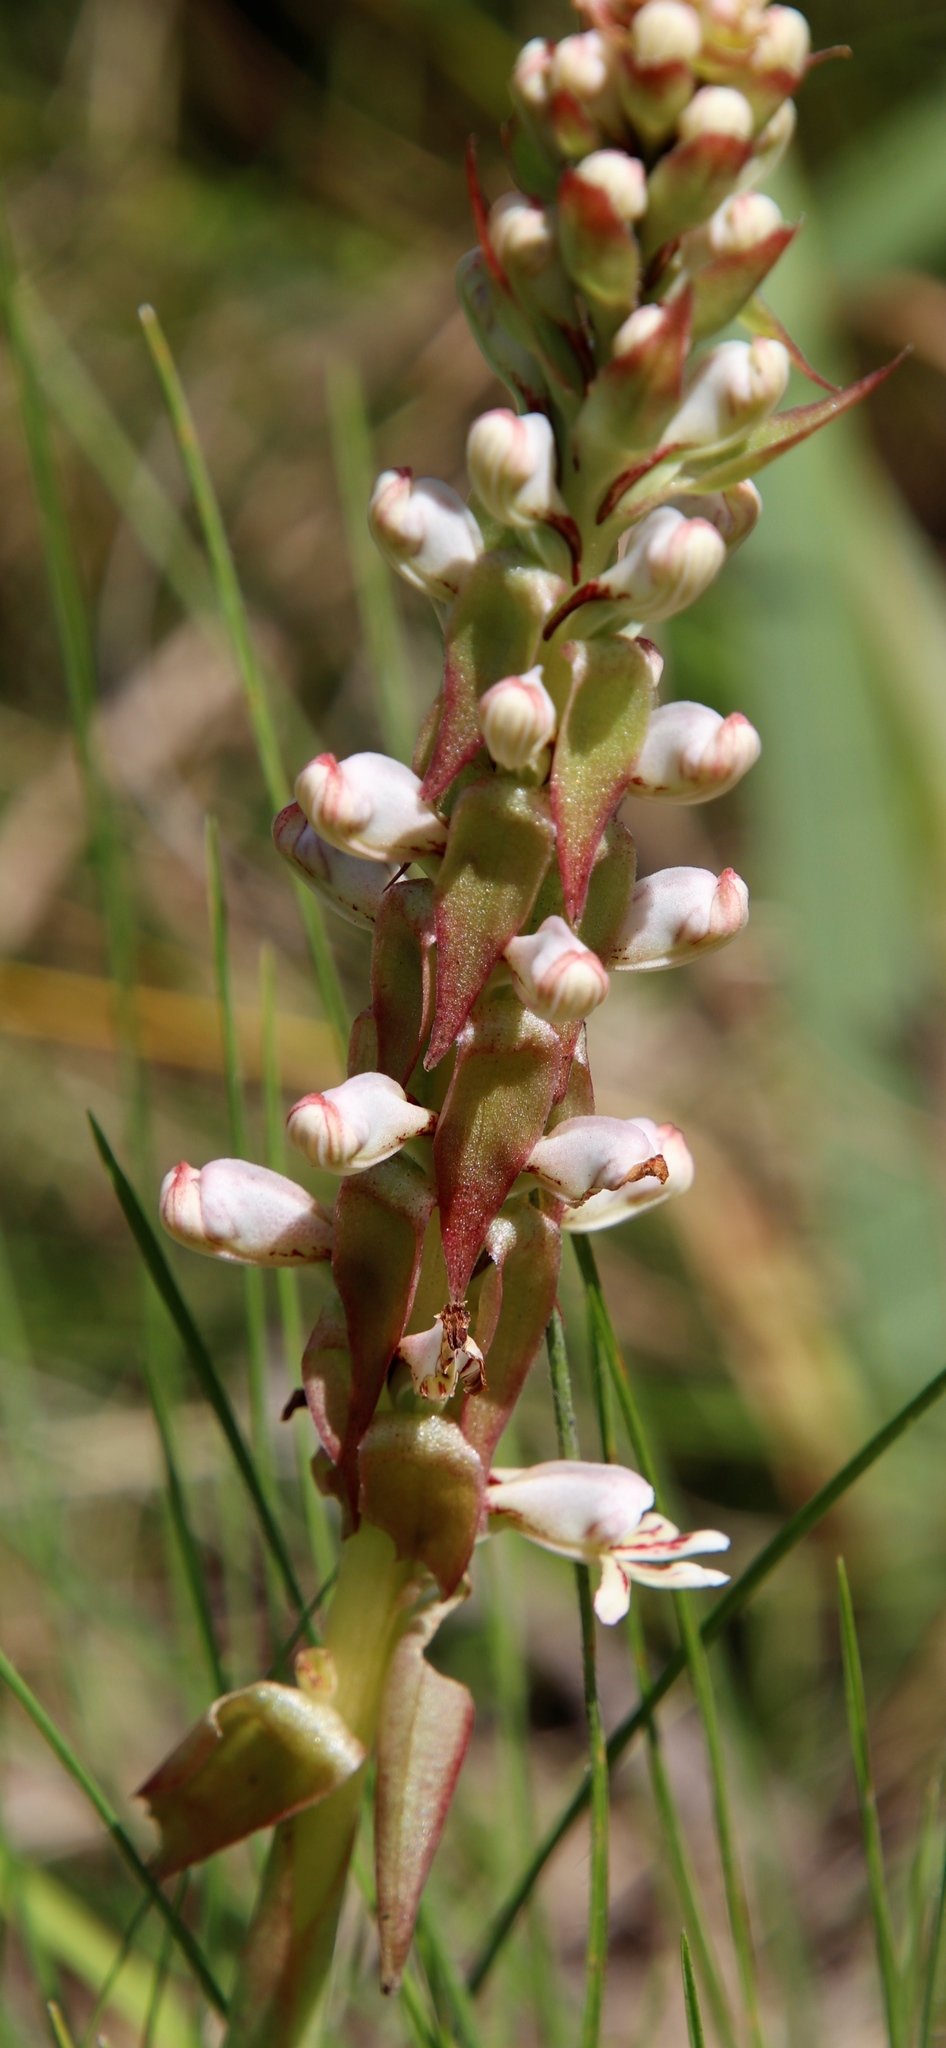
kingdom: Plantae
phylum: Tracheophyta
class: Liliopsida
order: Asparagales
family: Orchidaceae
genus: Satyrium
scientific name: Satyrium cristatum
